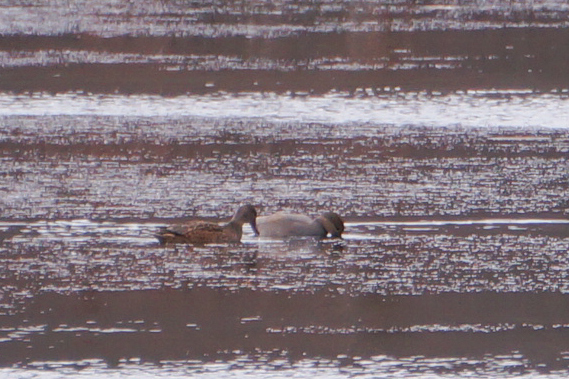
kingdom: Animalia
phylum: Chordata
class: Aves
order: Anseriformes
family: Anatidae
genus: Mareca
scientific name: Mareca strepera
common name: Gadwall
